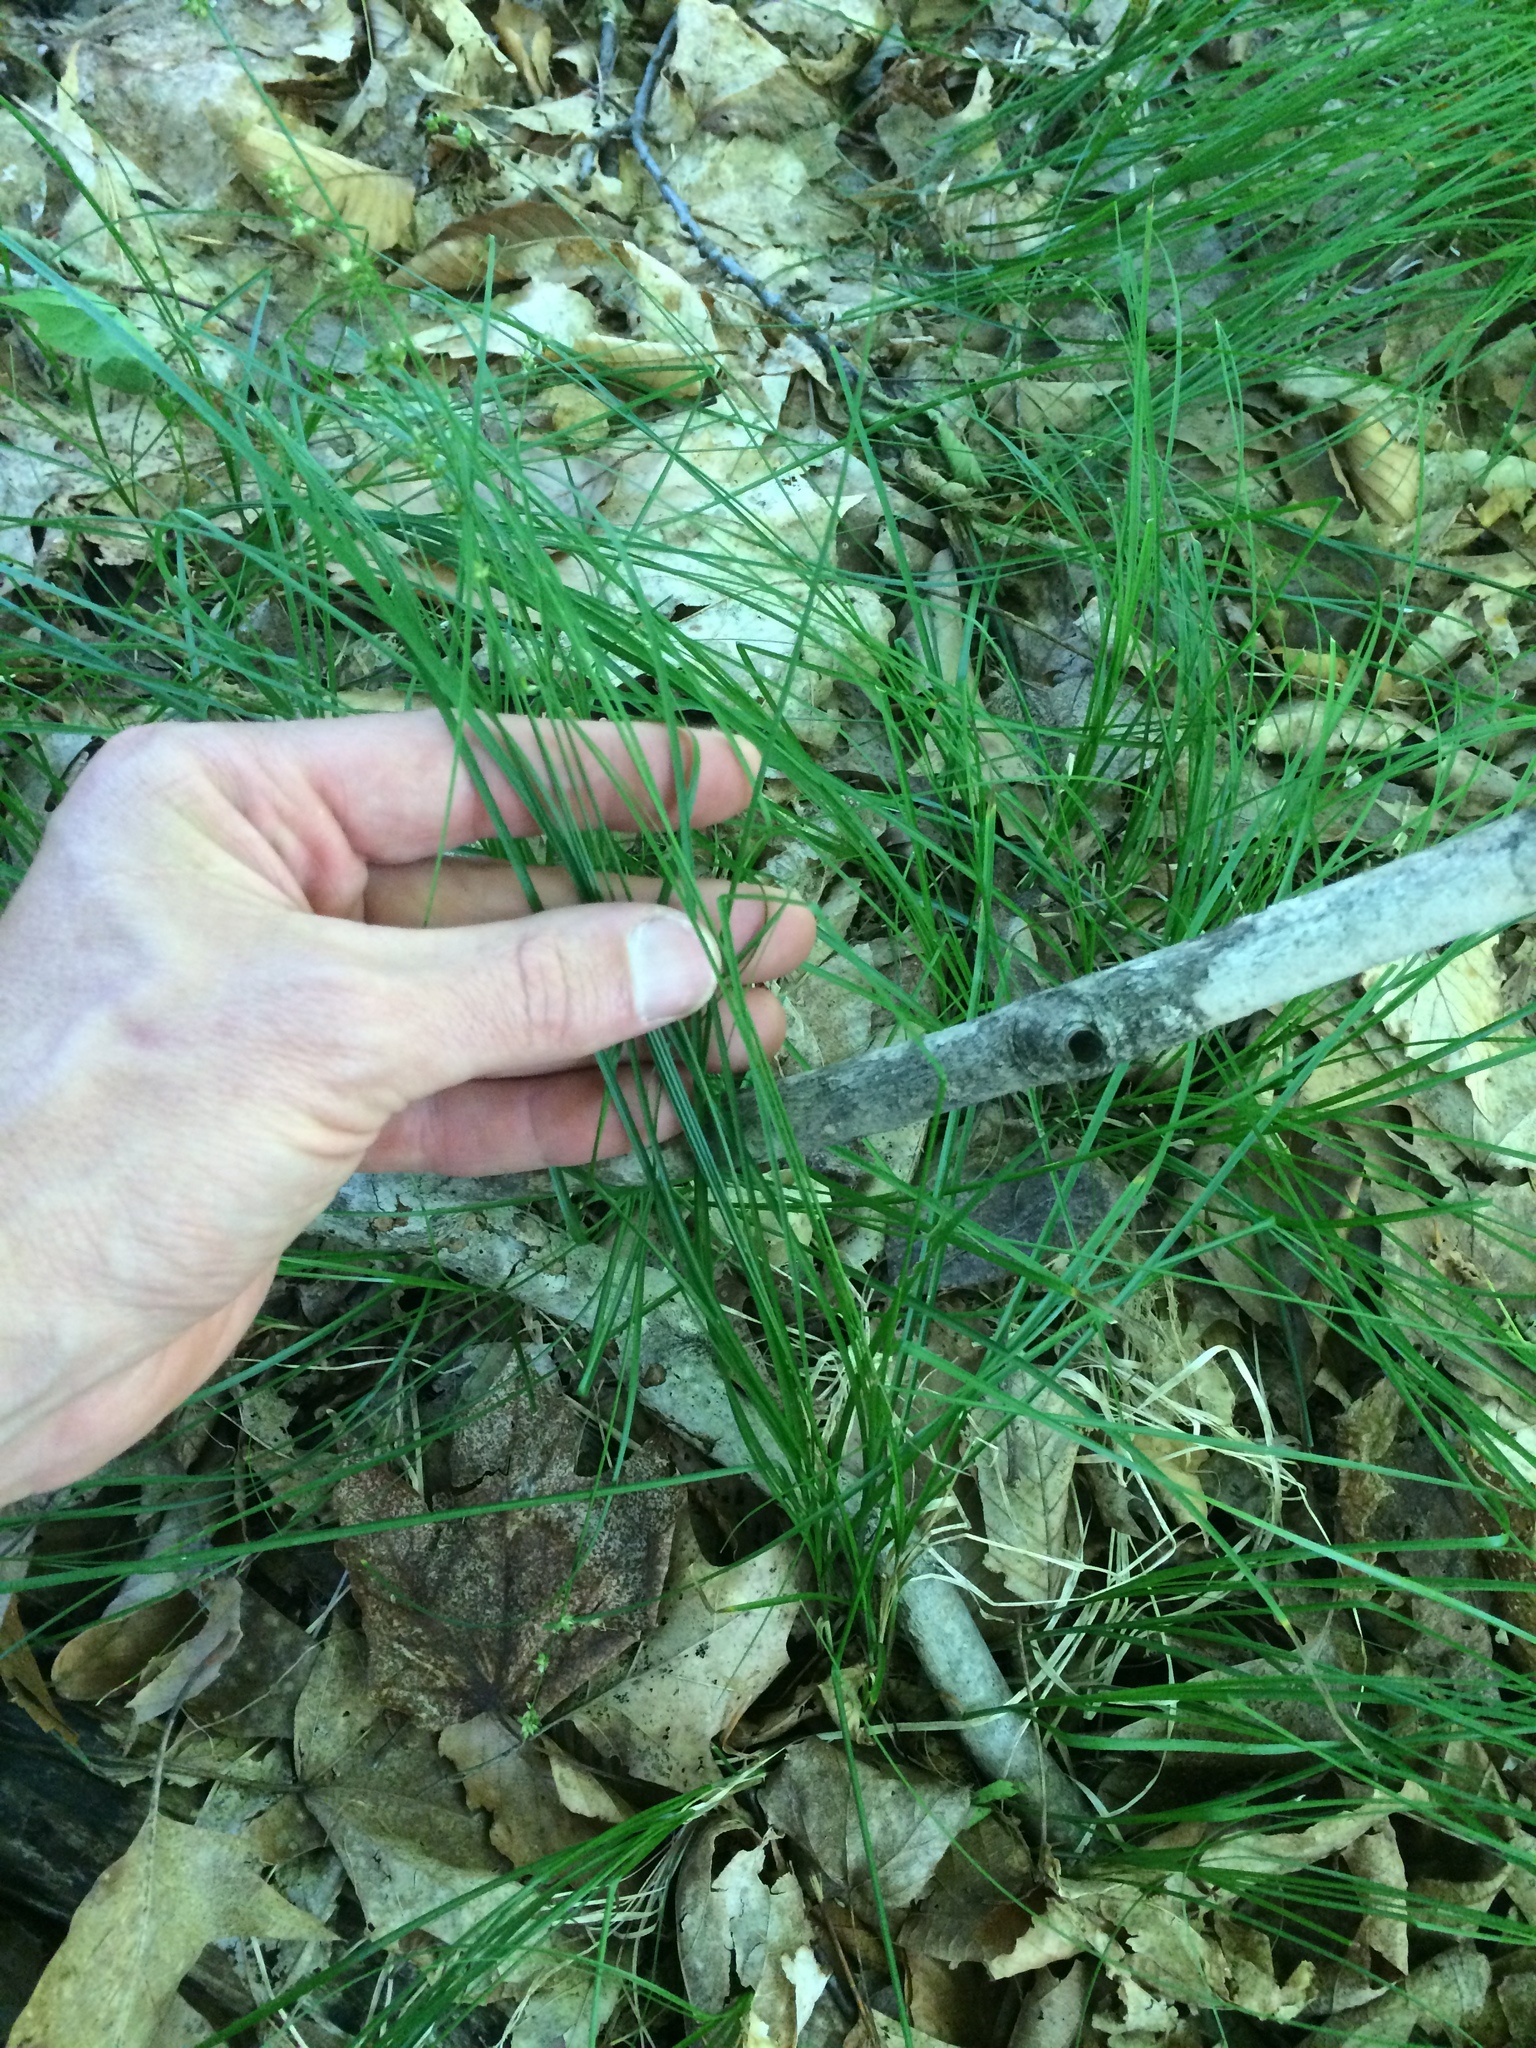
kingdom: Plantae
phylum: Tracheophyta
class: Liliopsida
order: Poales
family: Cyperaceae
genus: Carex
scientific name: Carex rosea
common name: Curly-styled wood sedge
